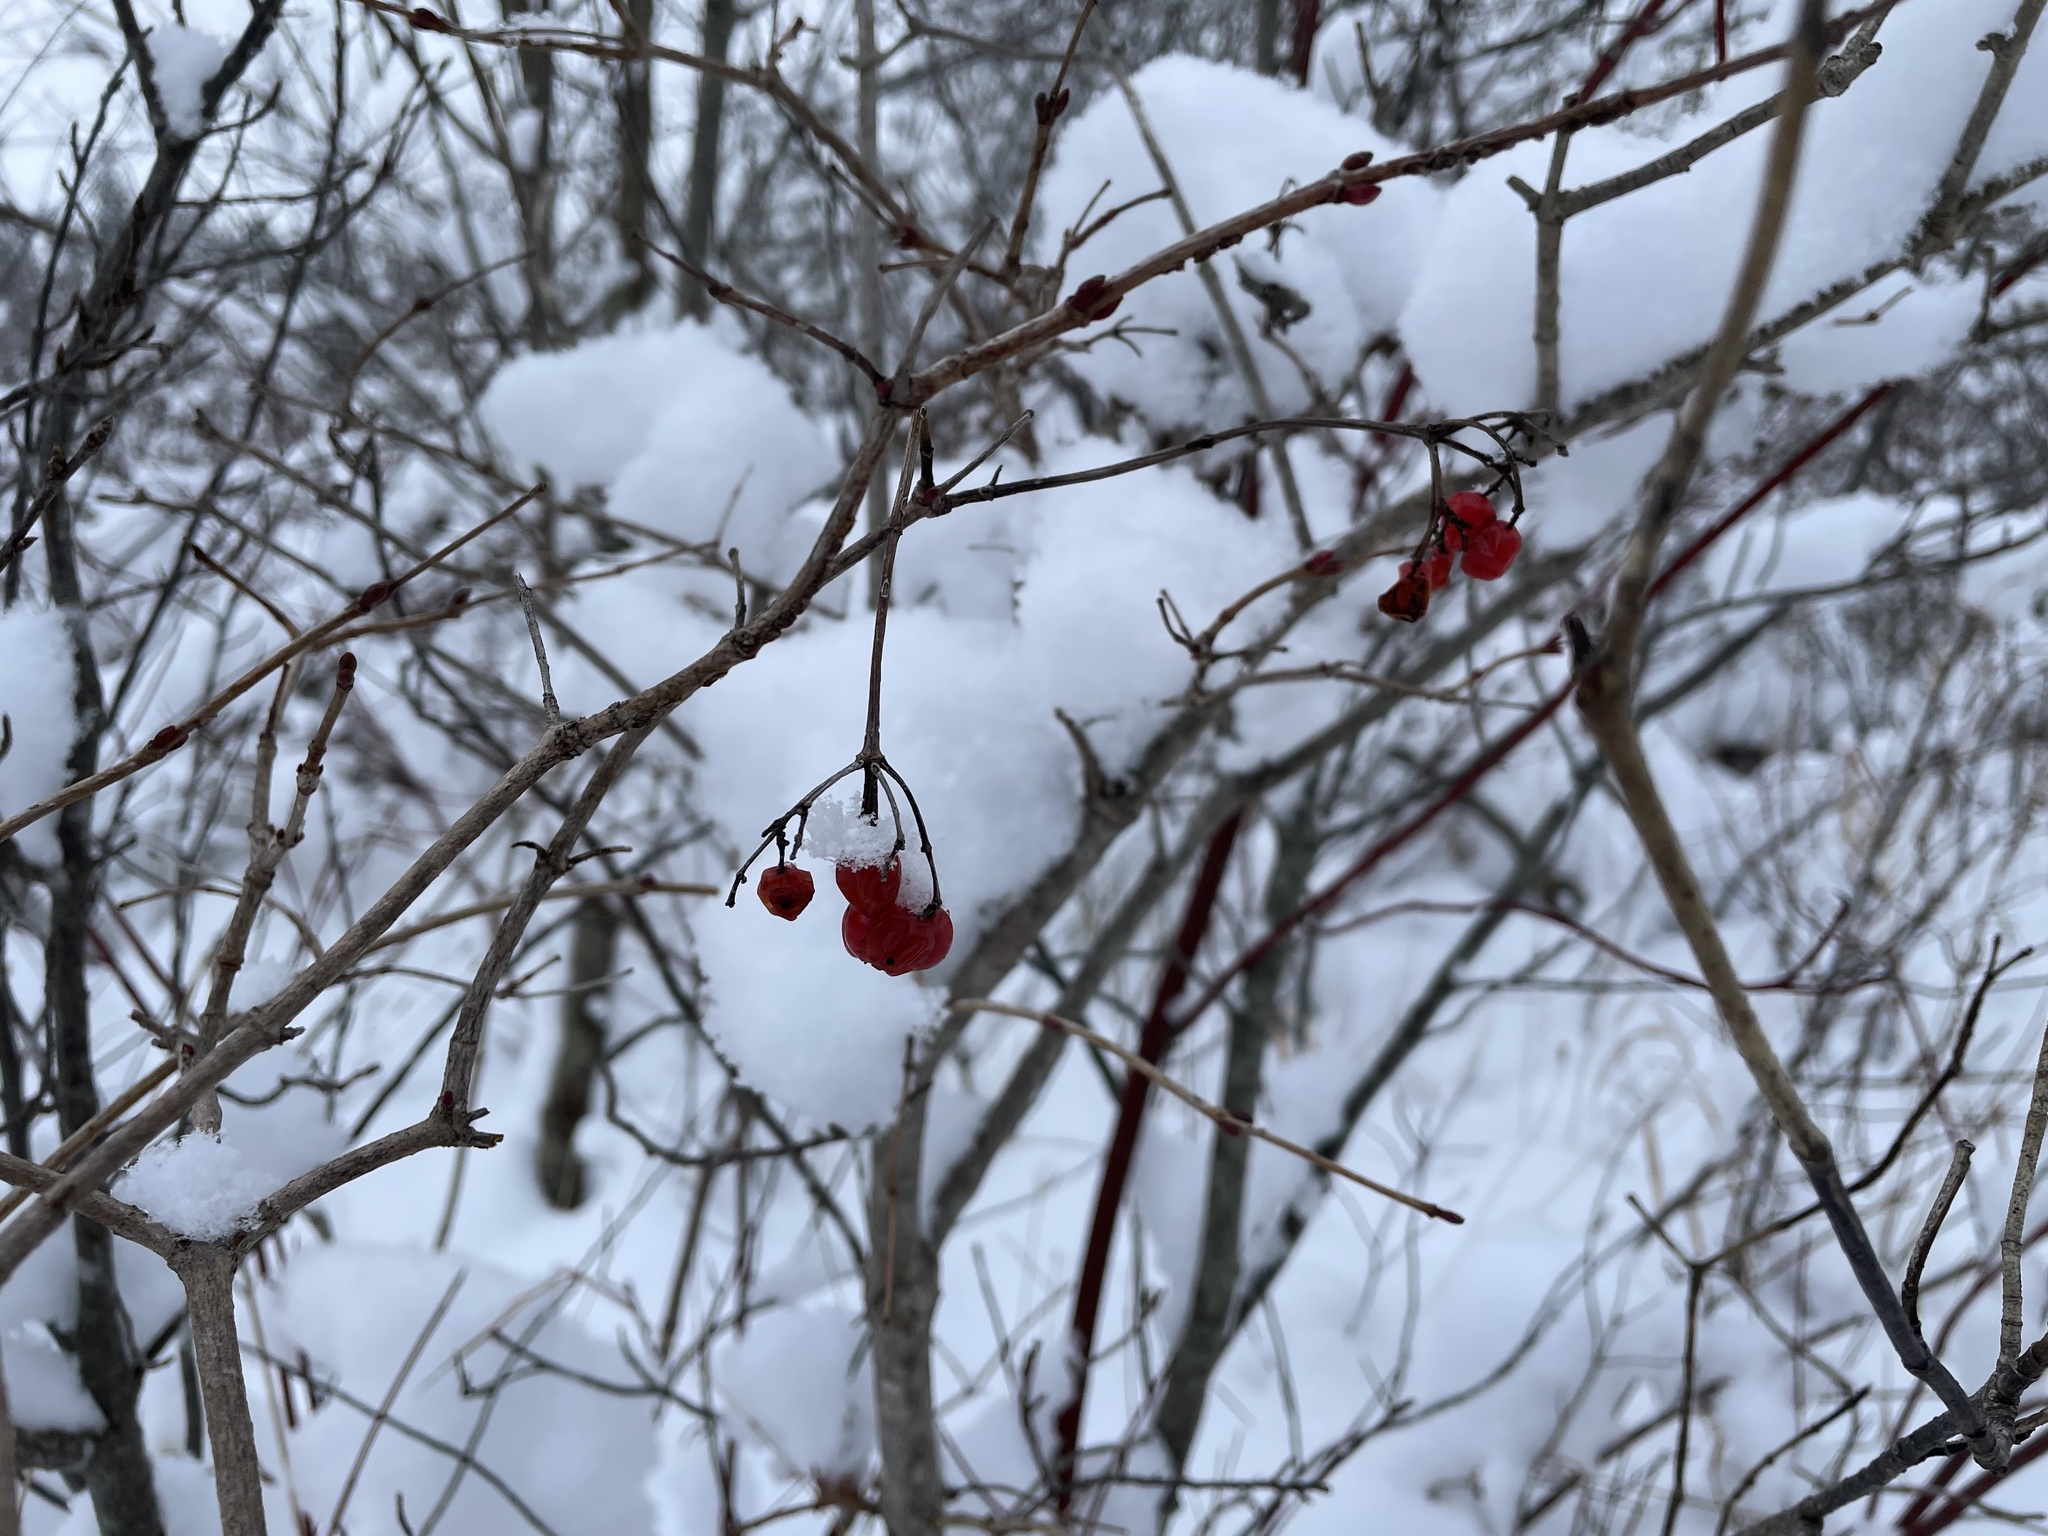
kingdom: Plantae
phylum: Tracheophyta
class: Magnoliopsida
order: Dipsacales
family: Viburnaceae
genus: Viburnum
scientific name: Viburnum opulus
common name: Guelder-rose
